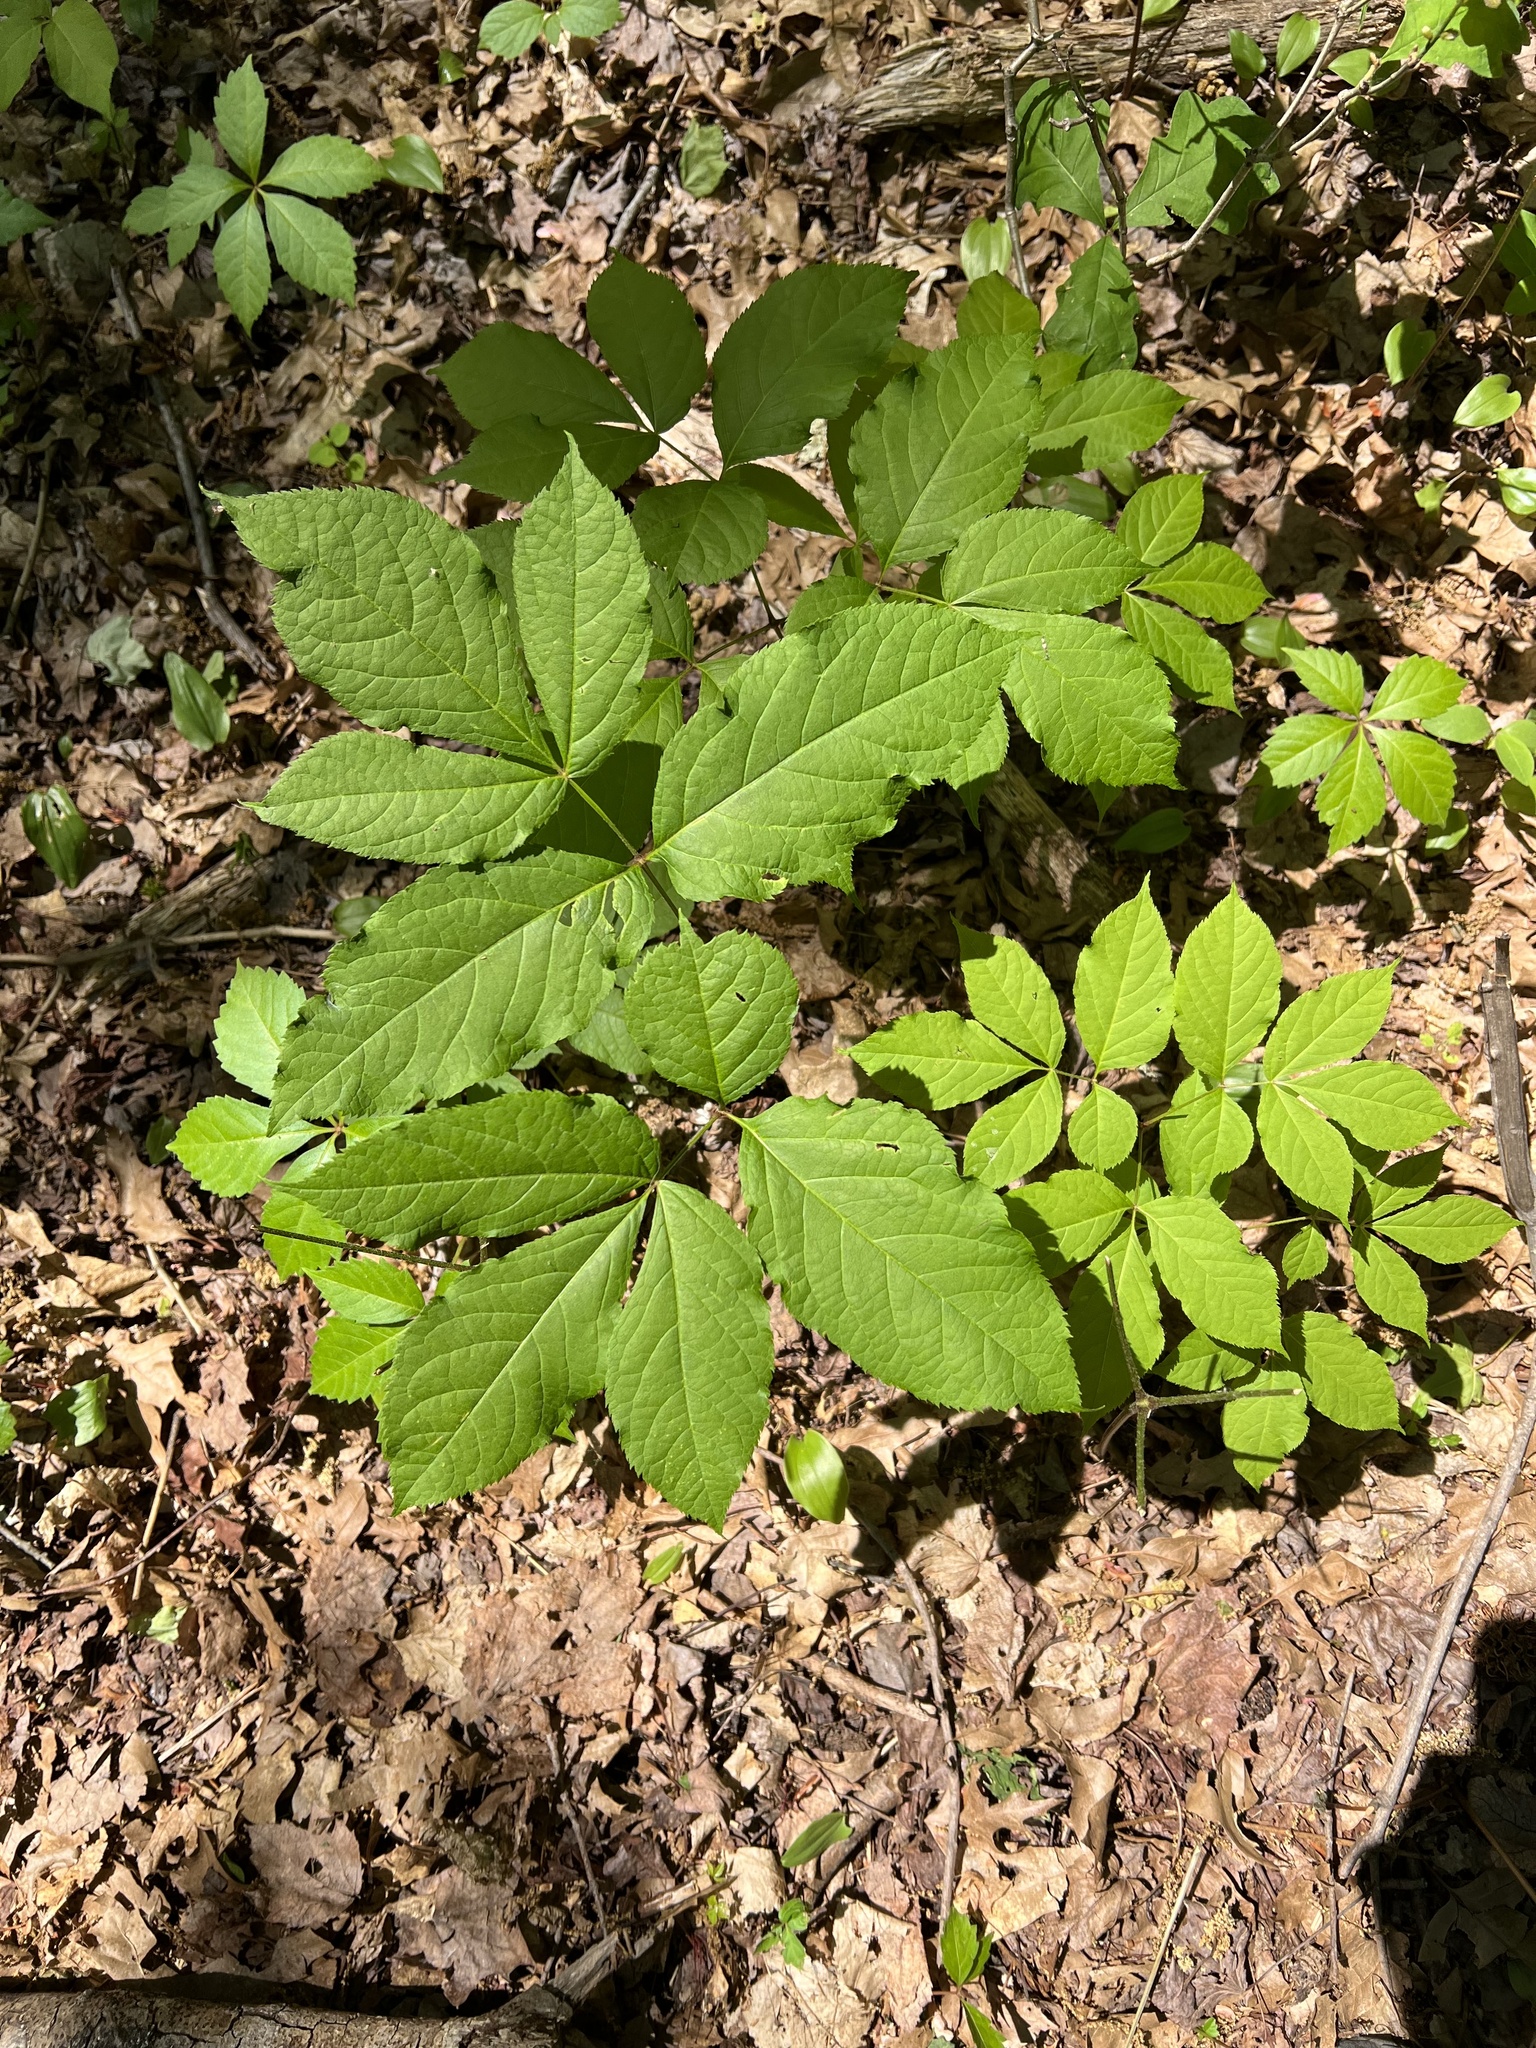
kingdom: Plantae
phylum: Tracheophyta
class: Magnoliopsida
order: Apiales
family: Araliaceae
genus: Aralia
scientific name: Aralia nudicaulis
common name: Wild sarsaparilla
